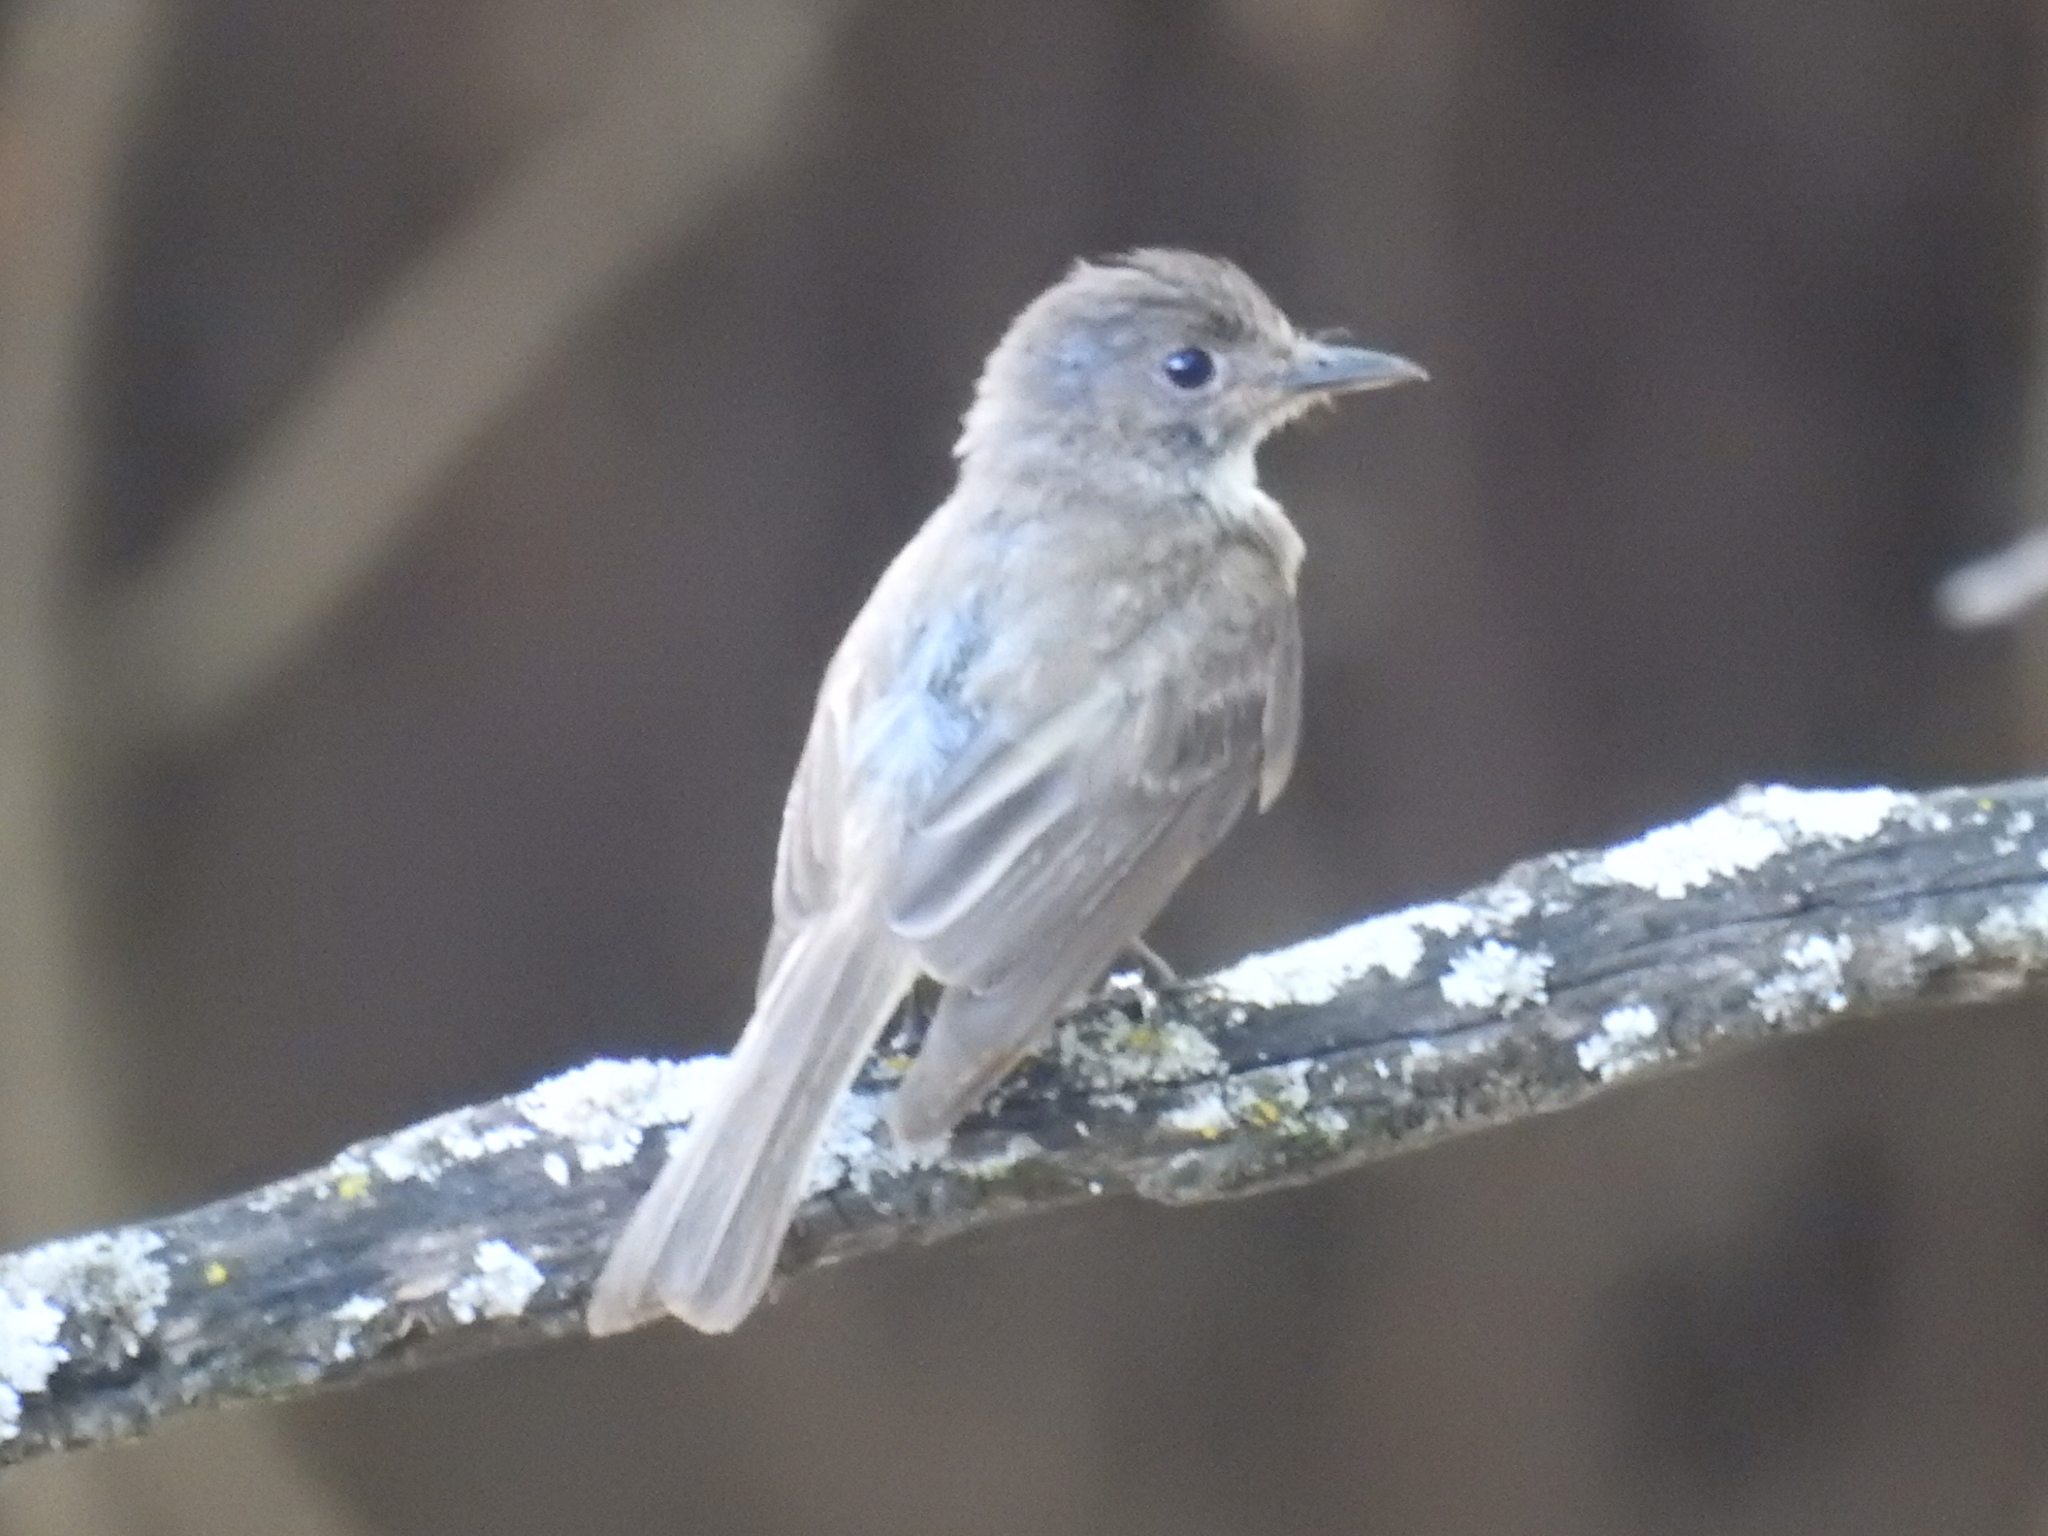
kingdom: Animalia
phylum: Chordata
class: Aves
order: Passeriformes
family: Tyrannidae
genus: Sayornis
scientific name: Sayornis phoebe
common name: Eastern phoebe
